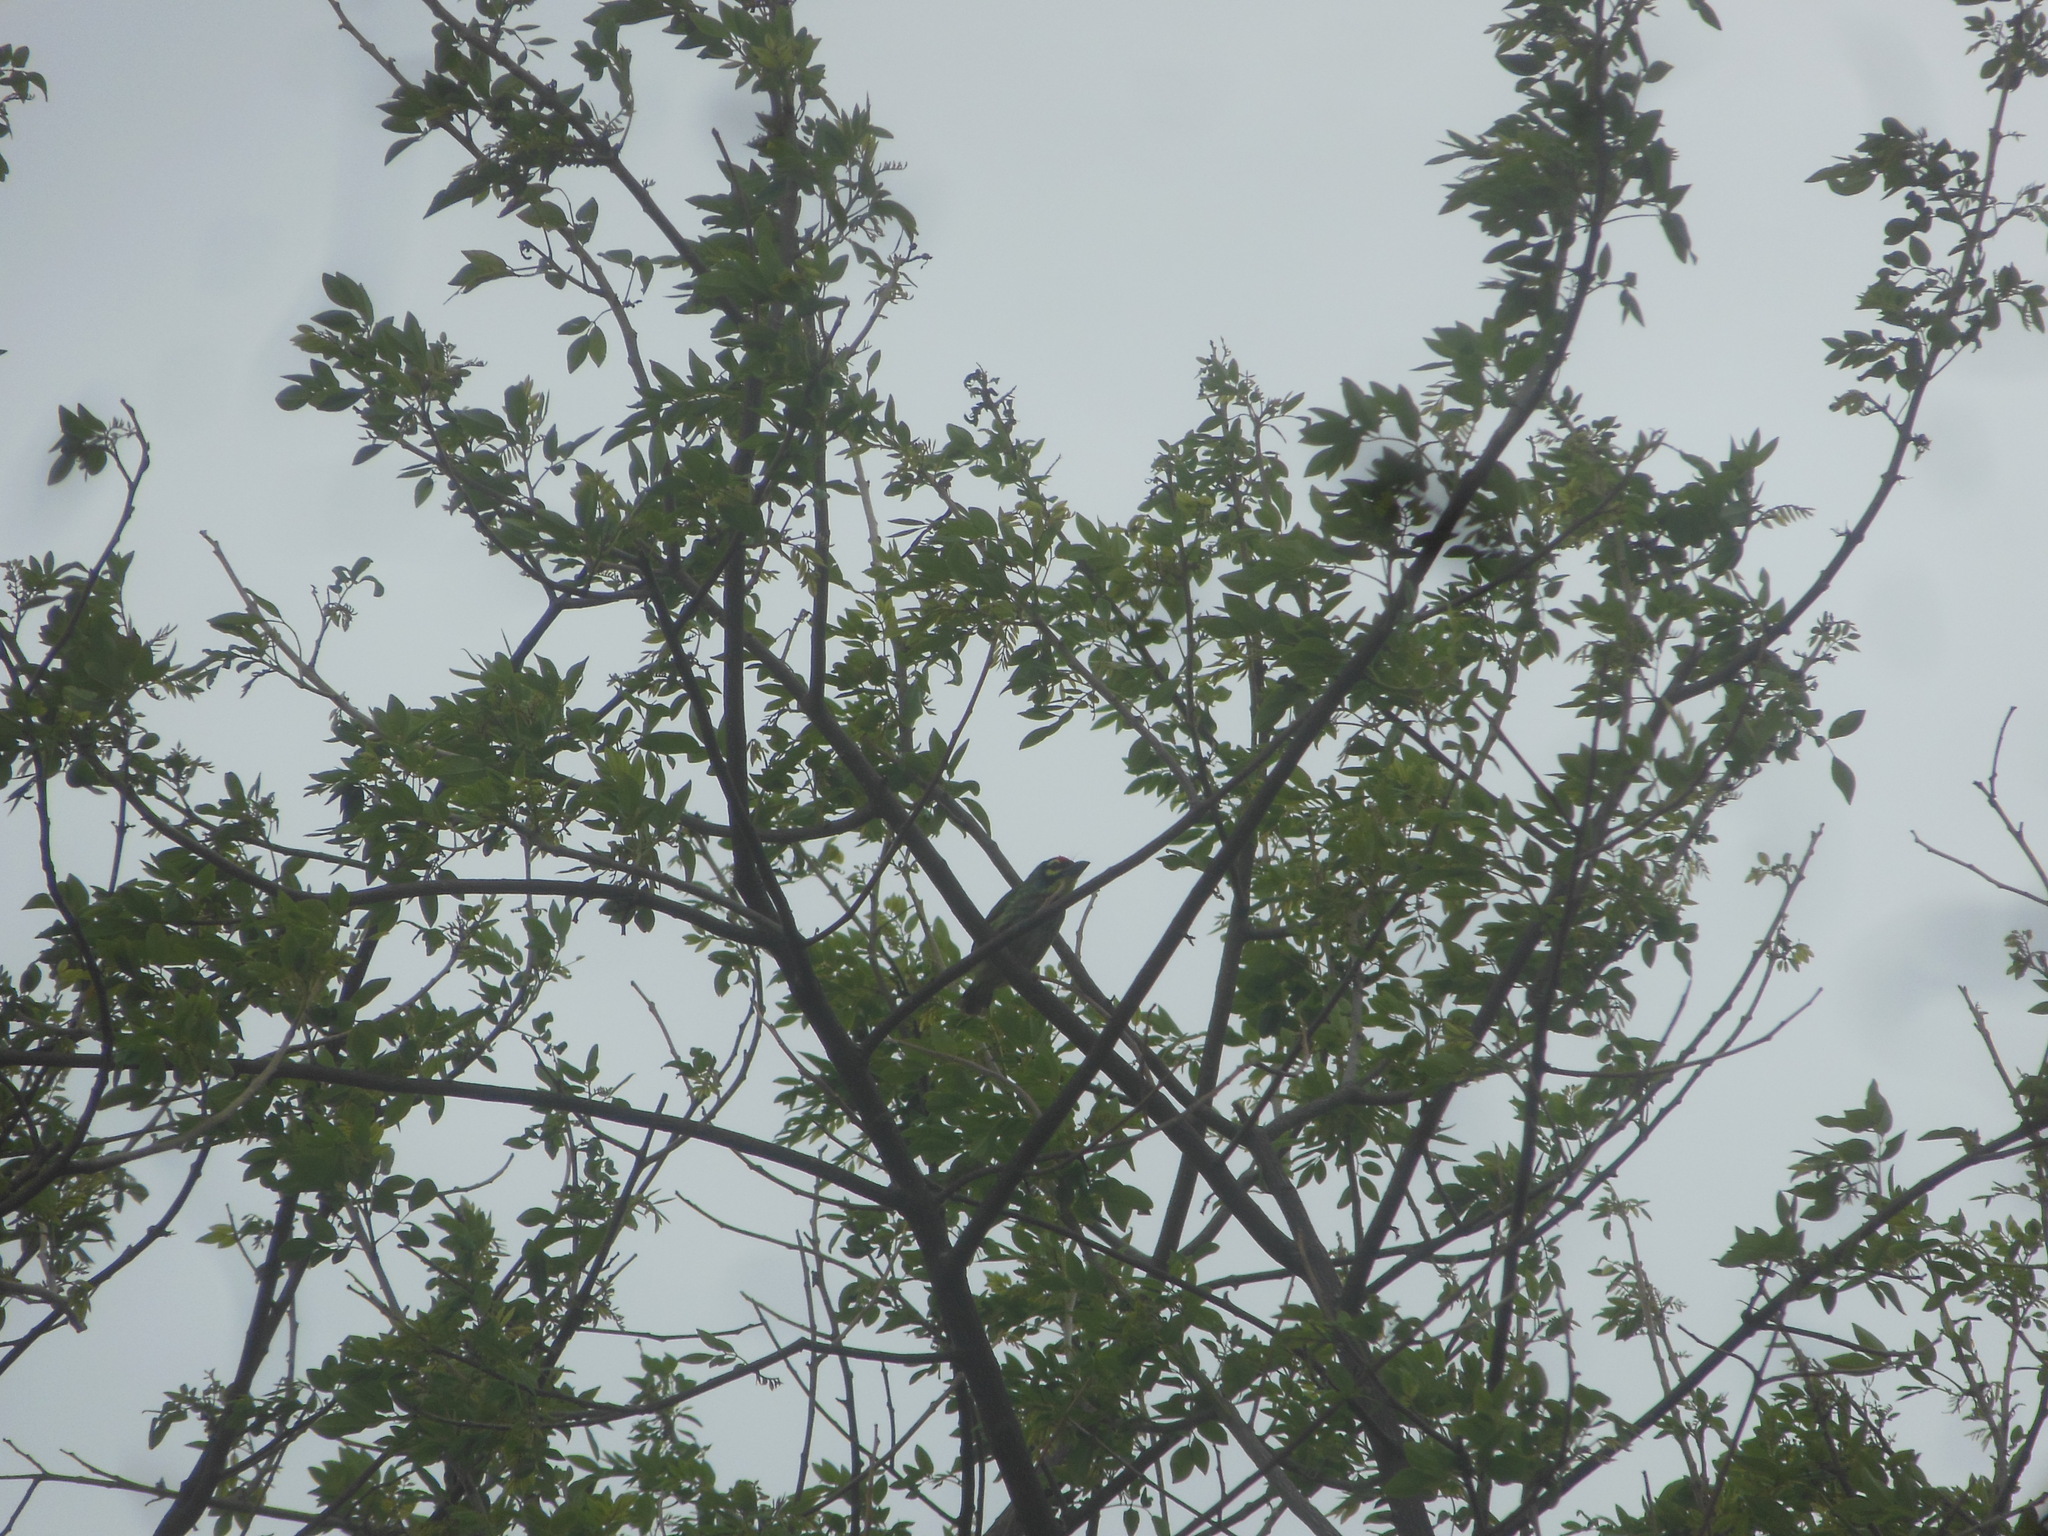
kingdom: Animalia
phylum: Chordata
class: Aves
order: Piciformes
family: Megalaimidae
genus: Psilopogon
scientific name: Psilopogon haemacephalus
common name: Coppersmith barbet
